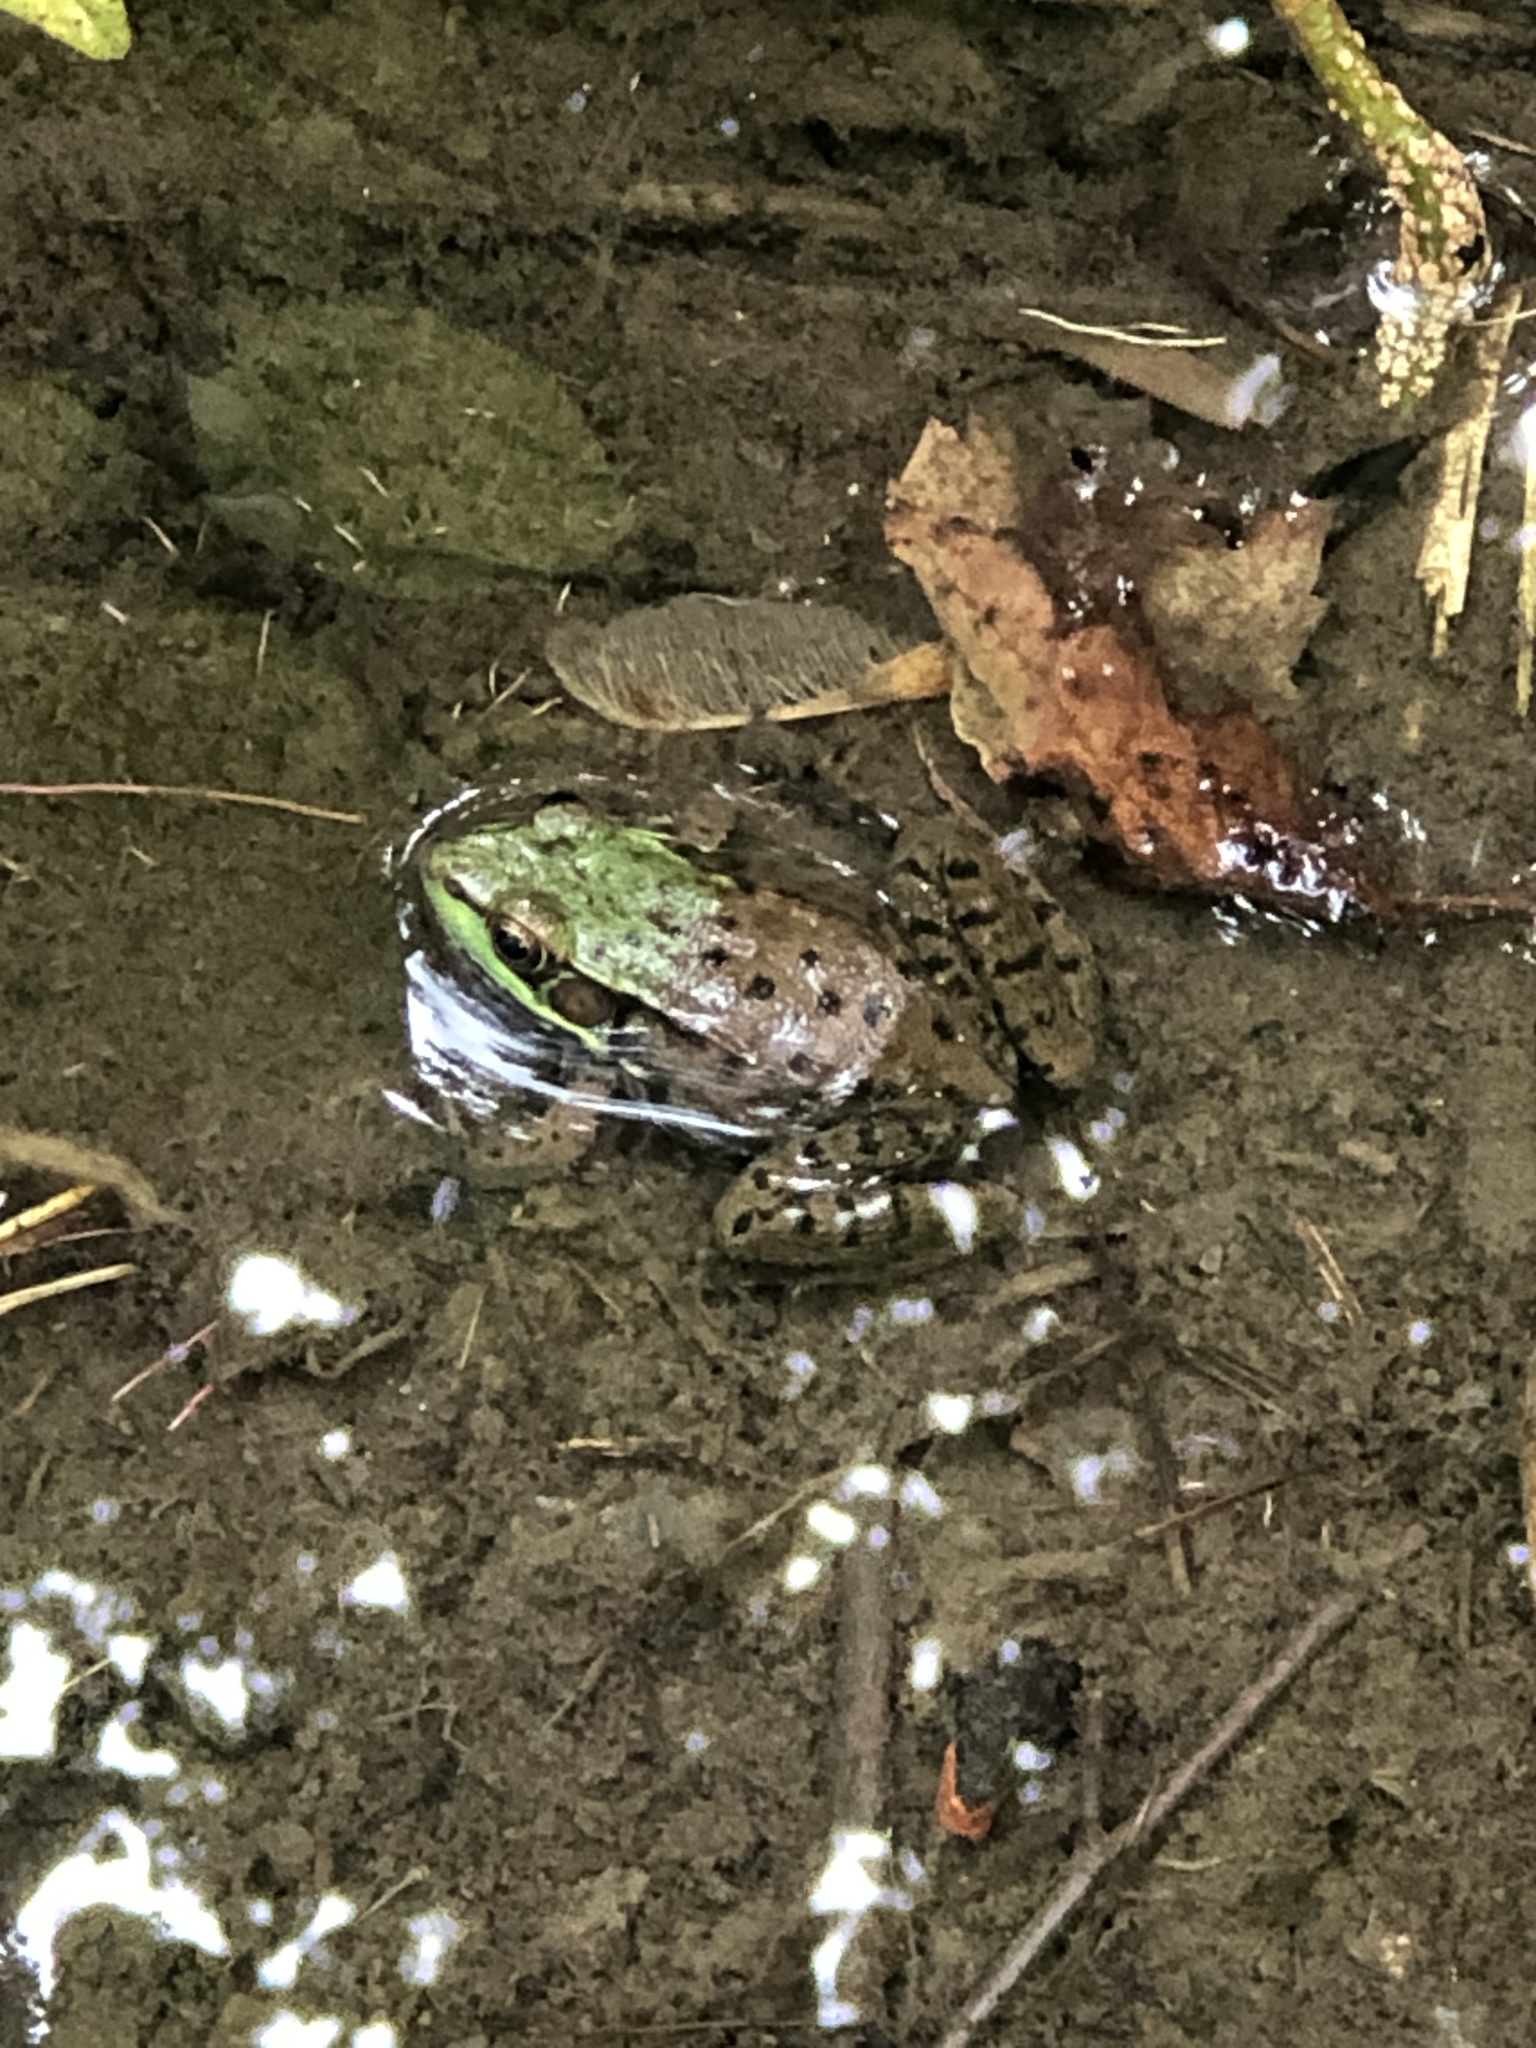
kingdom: Animalia
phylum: Chordata
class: Amphibia
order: Anura
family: Ranidae
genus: Lithobates
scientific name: Lithobates clamitans
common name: Green frog
